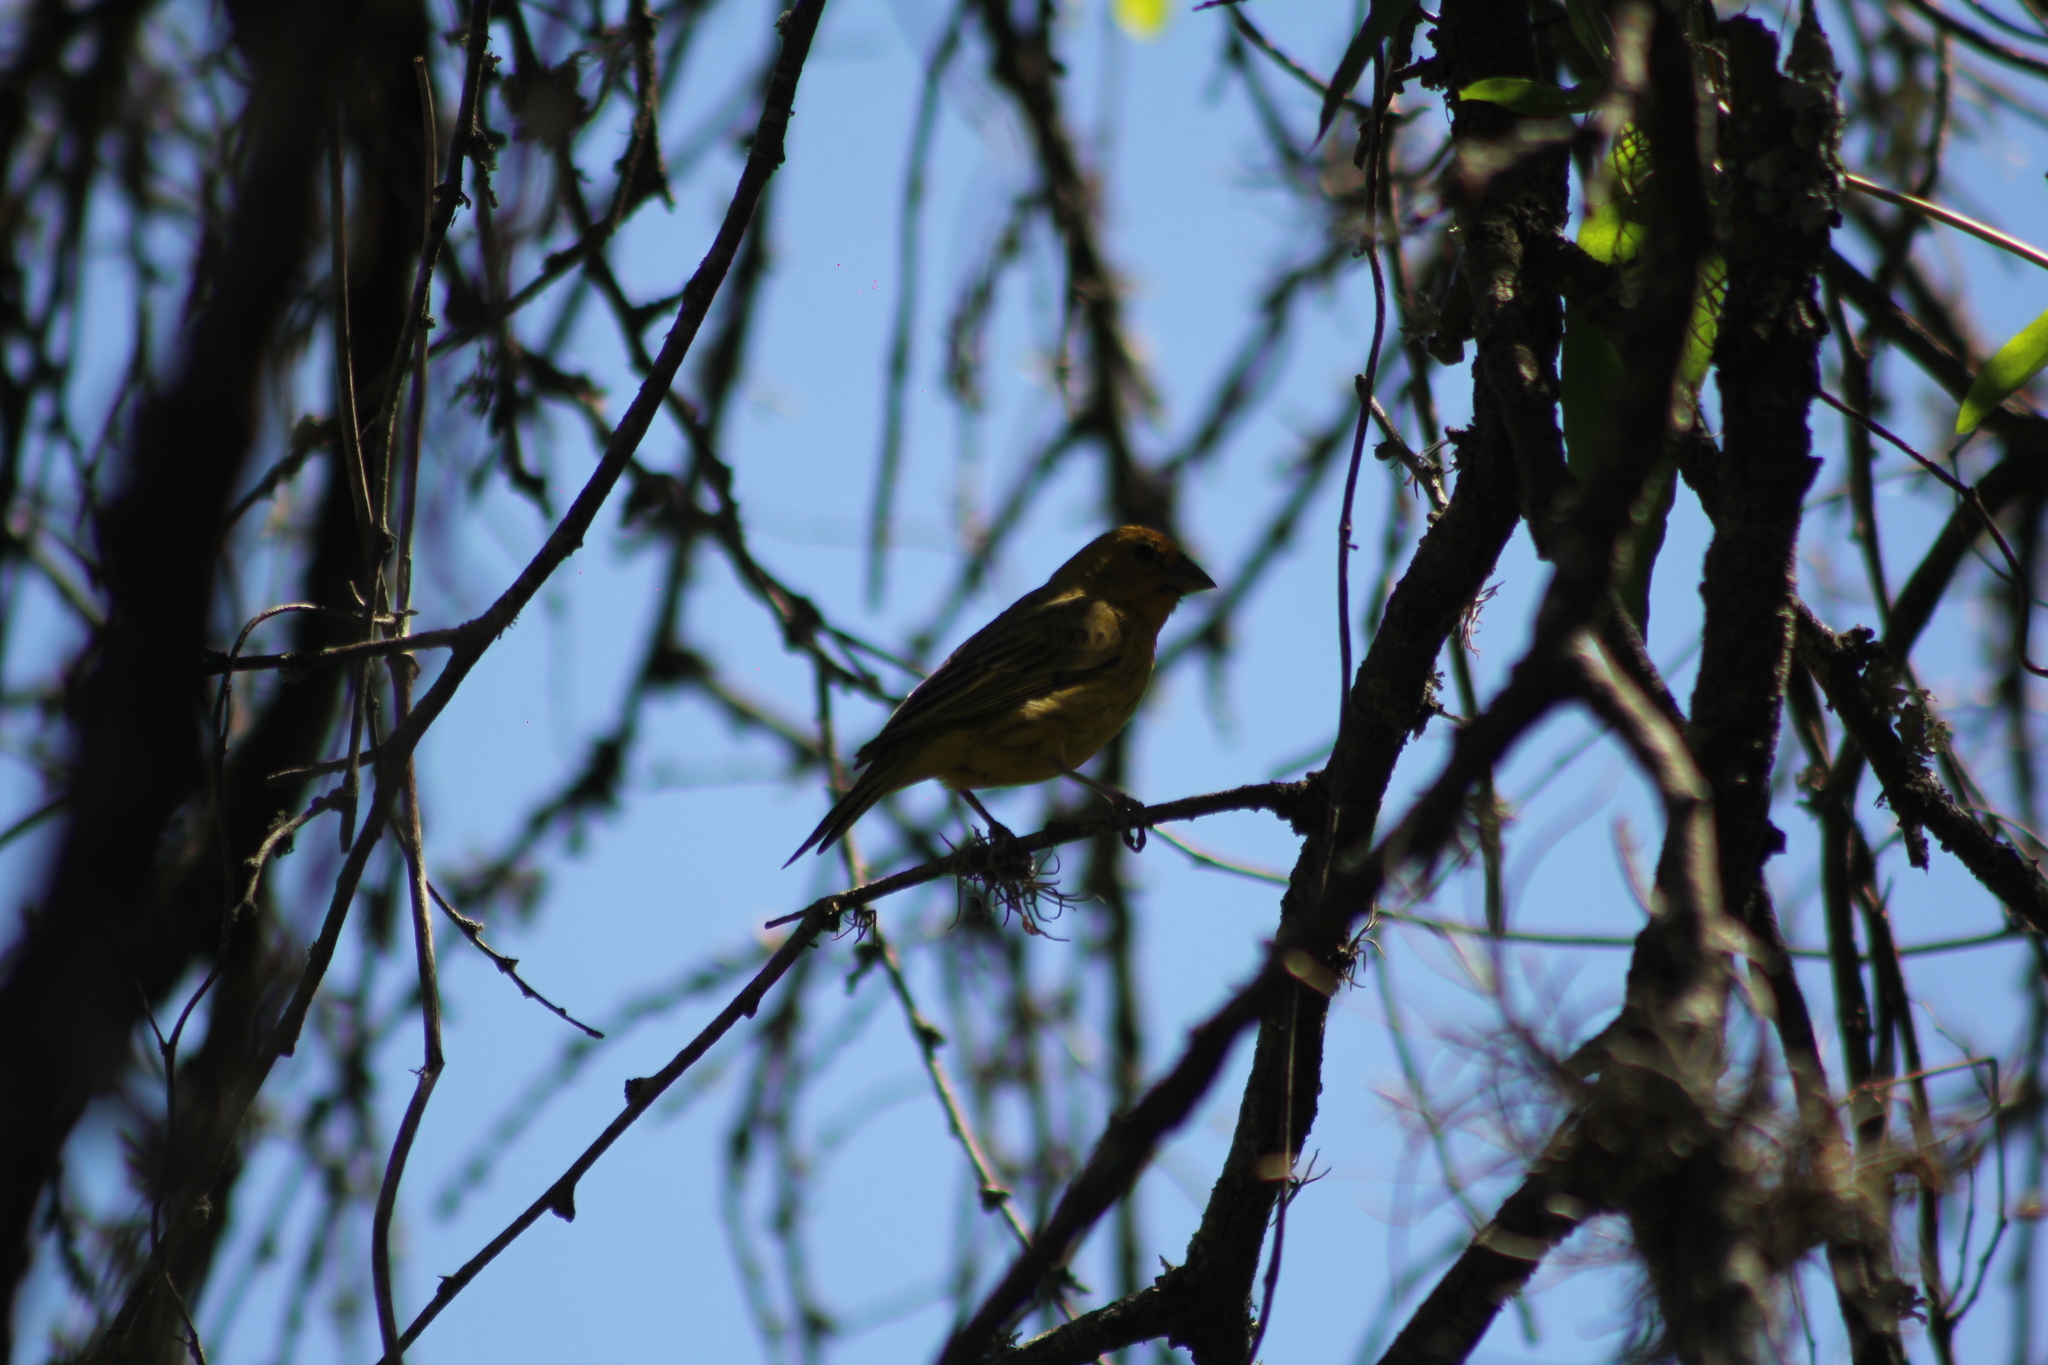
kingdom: Animalia
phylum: Chordata
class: Aves
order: Passeriformes
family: Thraupidae
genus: Sicalis
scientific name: Sicalis flaveola
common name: Saffron finch
